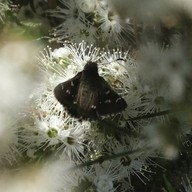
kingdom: Animalia
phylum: Arthropoda
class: Insecta
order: Lepidoptera
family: Hesperiidae
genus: Pasma
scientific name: Pasma tasmanicus
